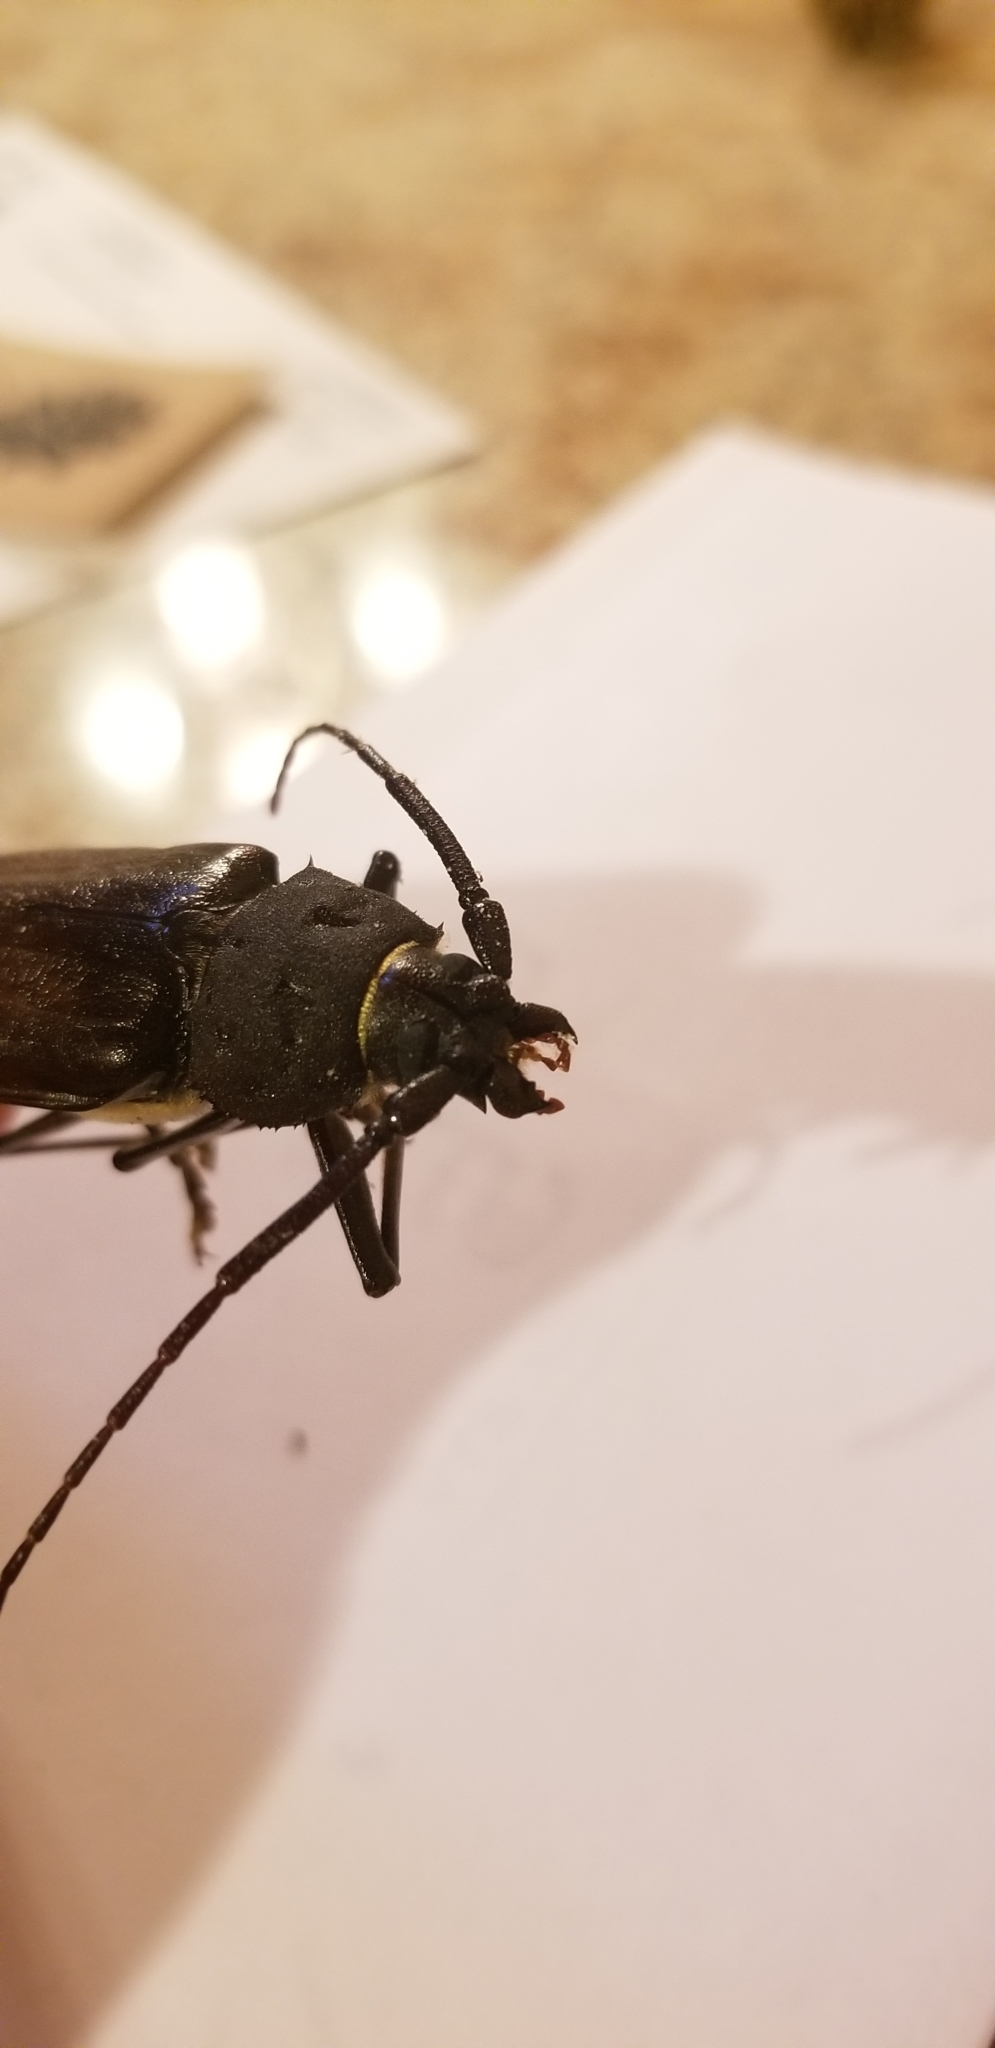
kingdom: Animalia
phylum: Arthropoda
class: Insecta
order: Coleoptera
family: Cerambycidae
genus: Trichocnemis
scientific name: Trichocnemis spiculatus
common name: Long-horned beetle
